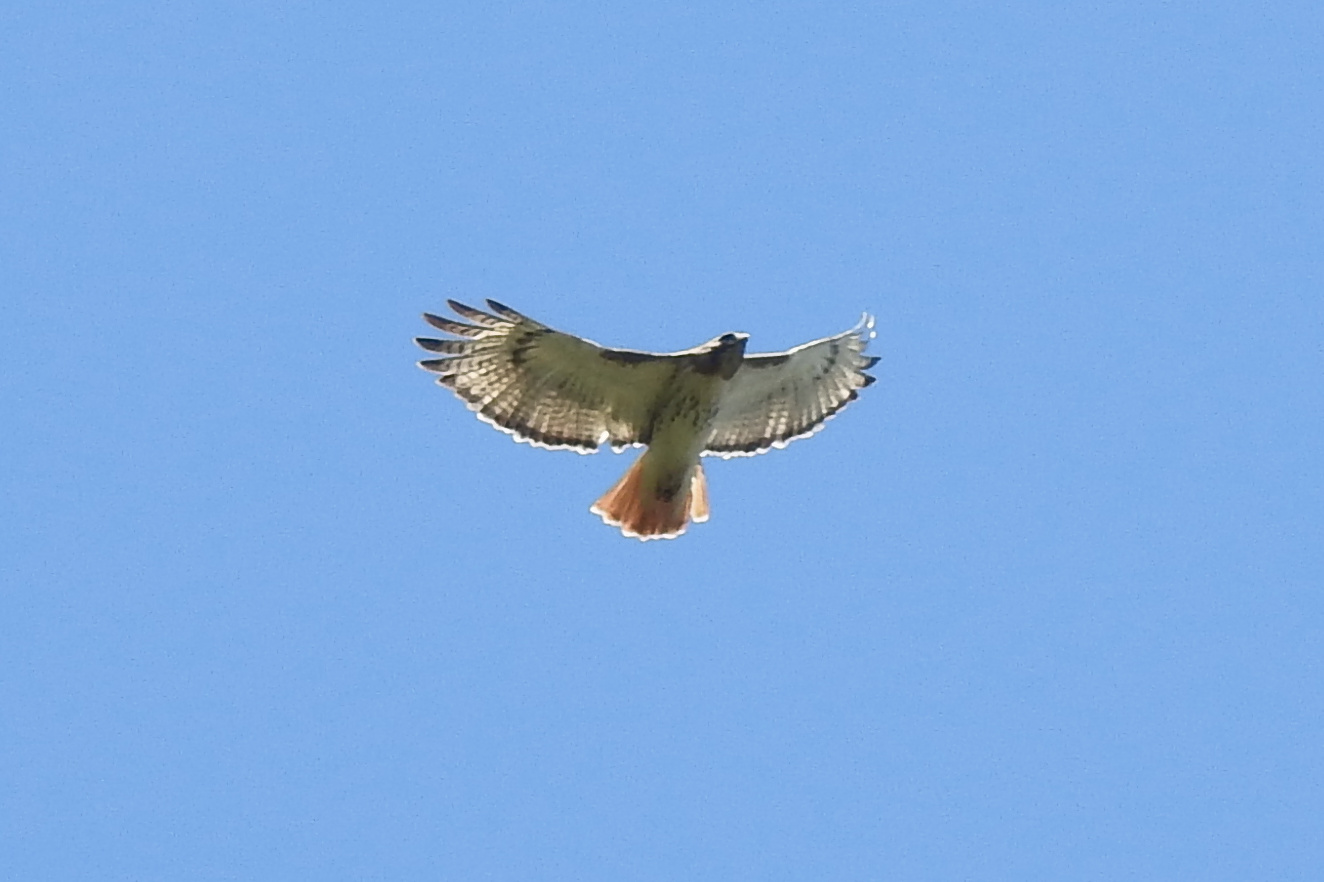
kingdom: Animalia
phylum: Chordata
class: Aves
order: Accipitriformes
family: Accipitridae
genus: Buteo
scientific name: Buteo jamaicensis
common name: Red-tailed hawk
